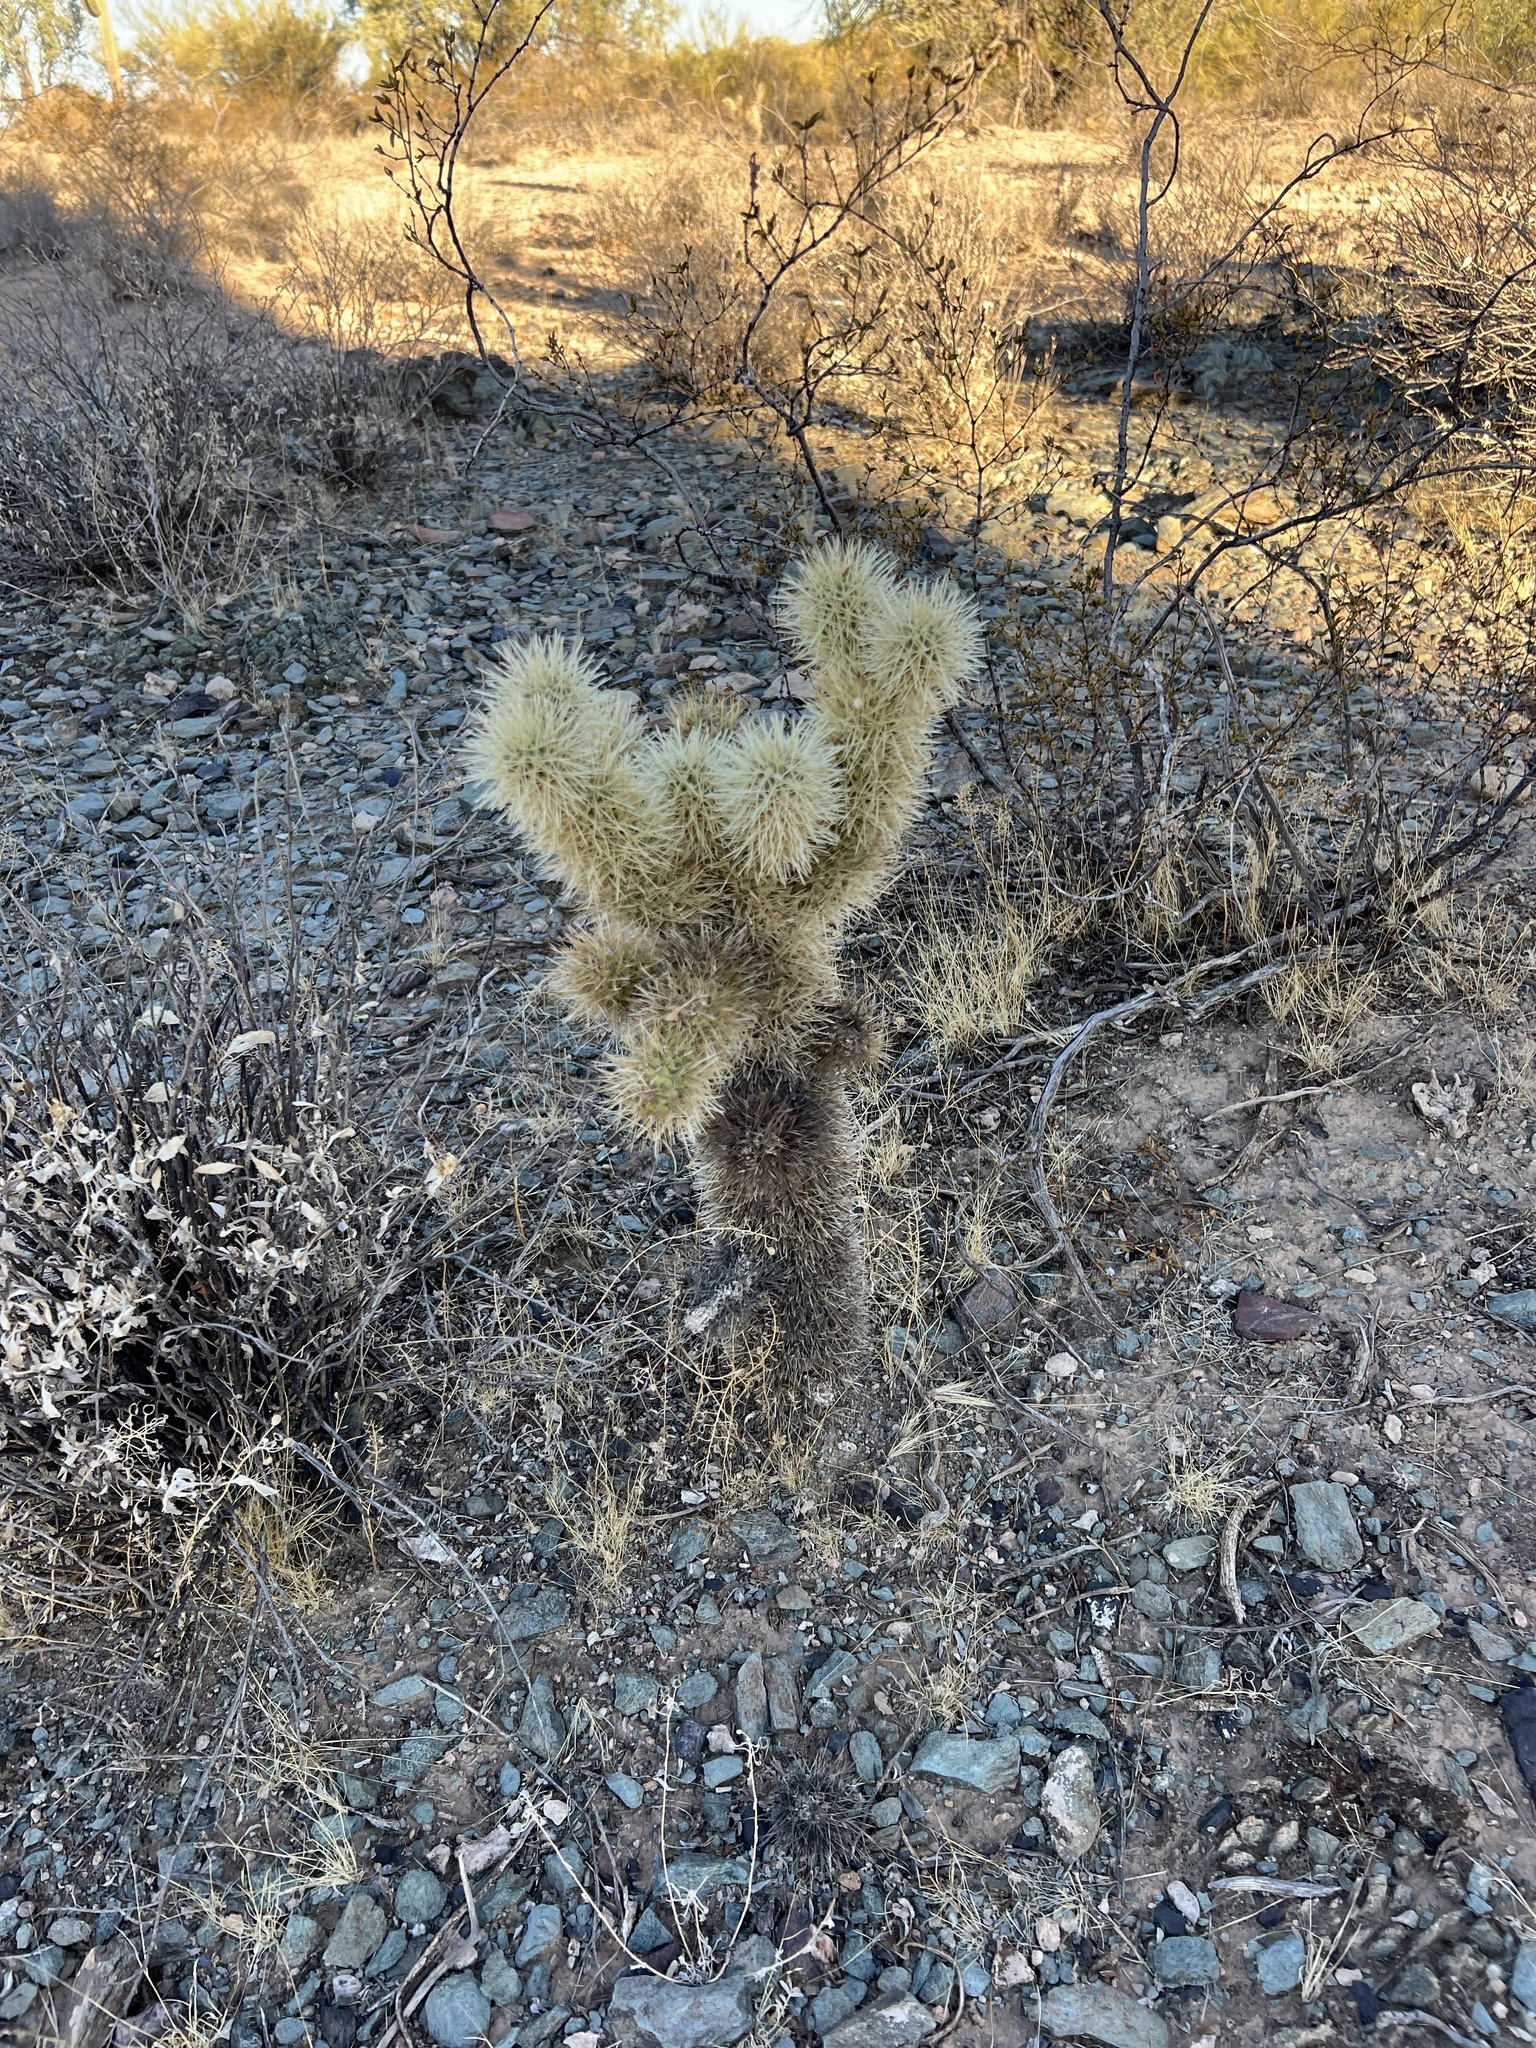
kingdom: Plantae
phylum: Tracheophyta
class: Magnoliopsida
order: Caryophyllales
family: Cactaceae
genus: Cylindropuntia
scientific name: Cylindropuntia fosbergii
